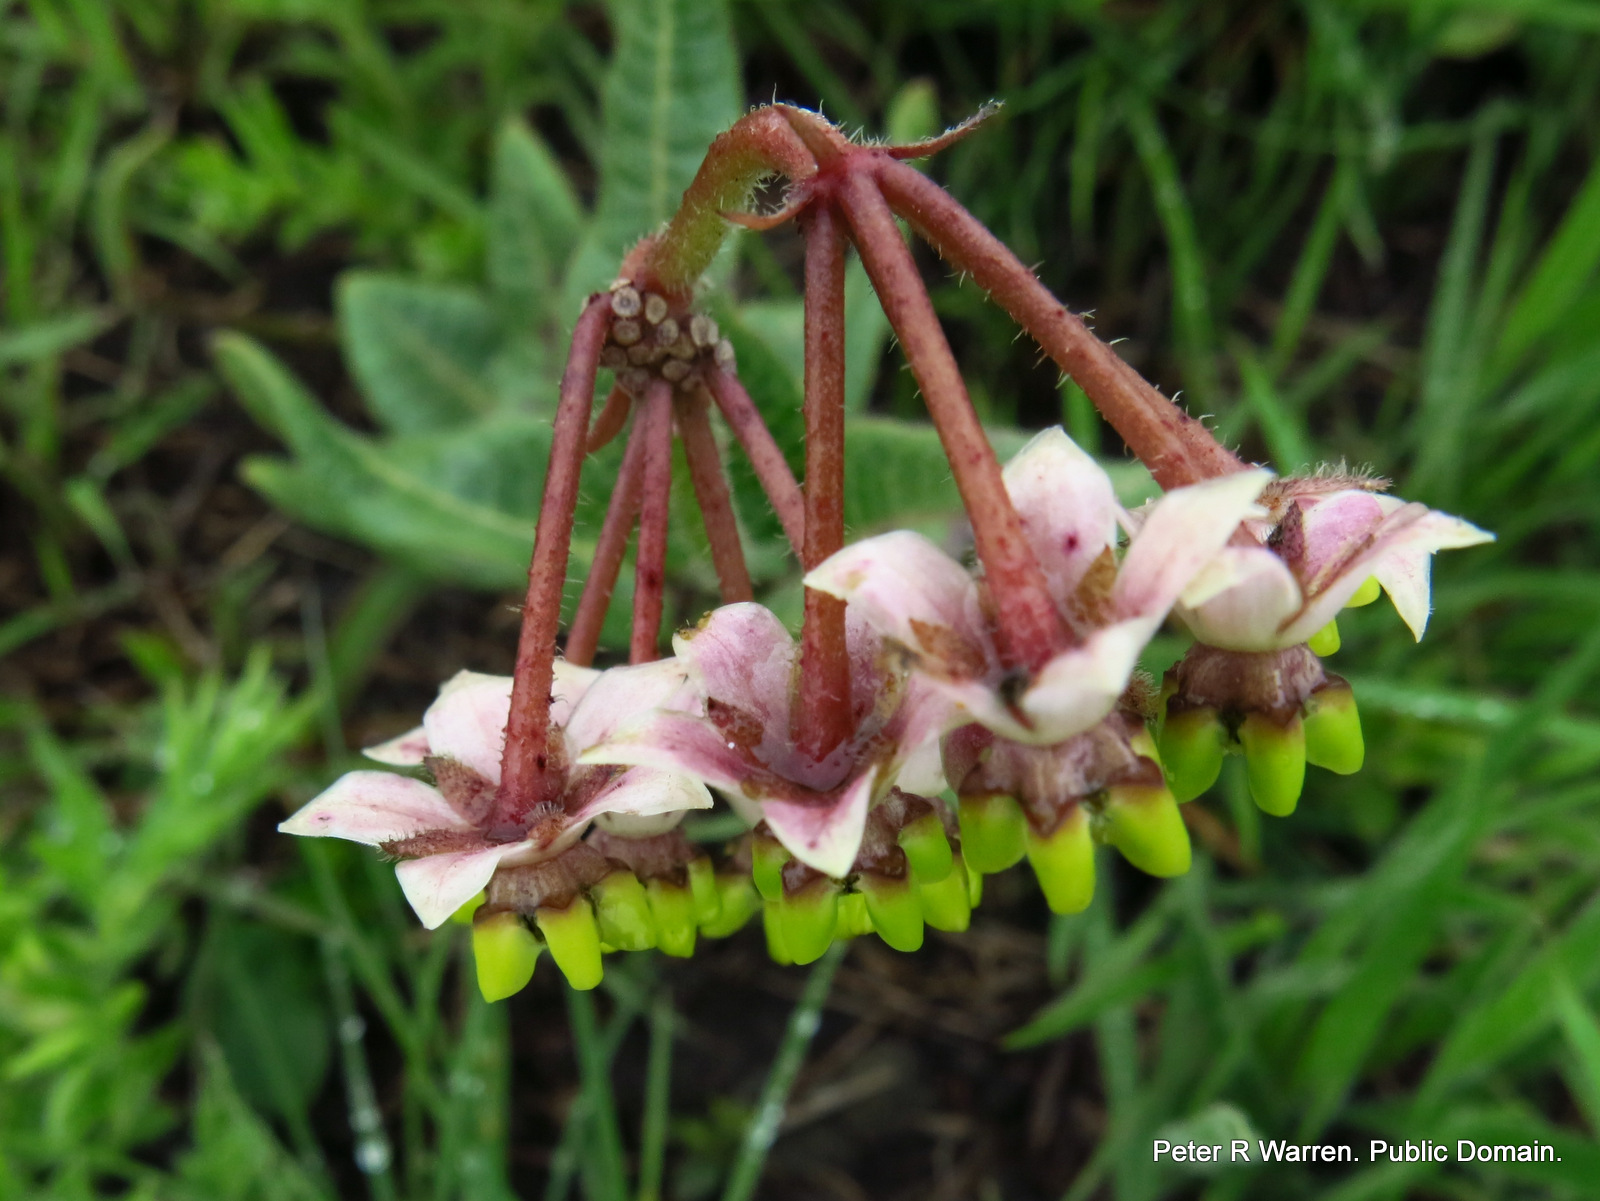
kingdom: Plantae
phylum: Tracheophyta
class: Magnoliopsida
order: Gentianales
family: Apocynaceae
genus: Asclepias
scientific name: Asclepias albens
